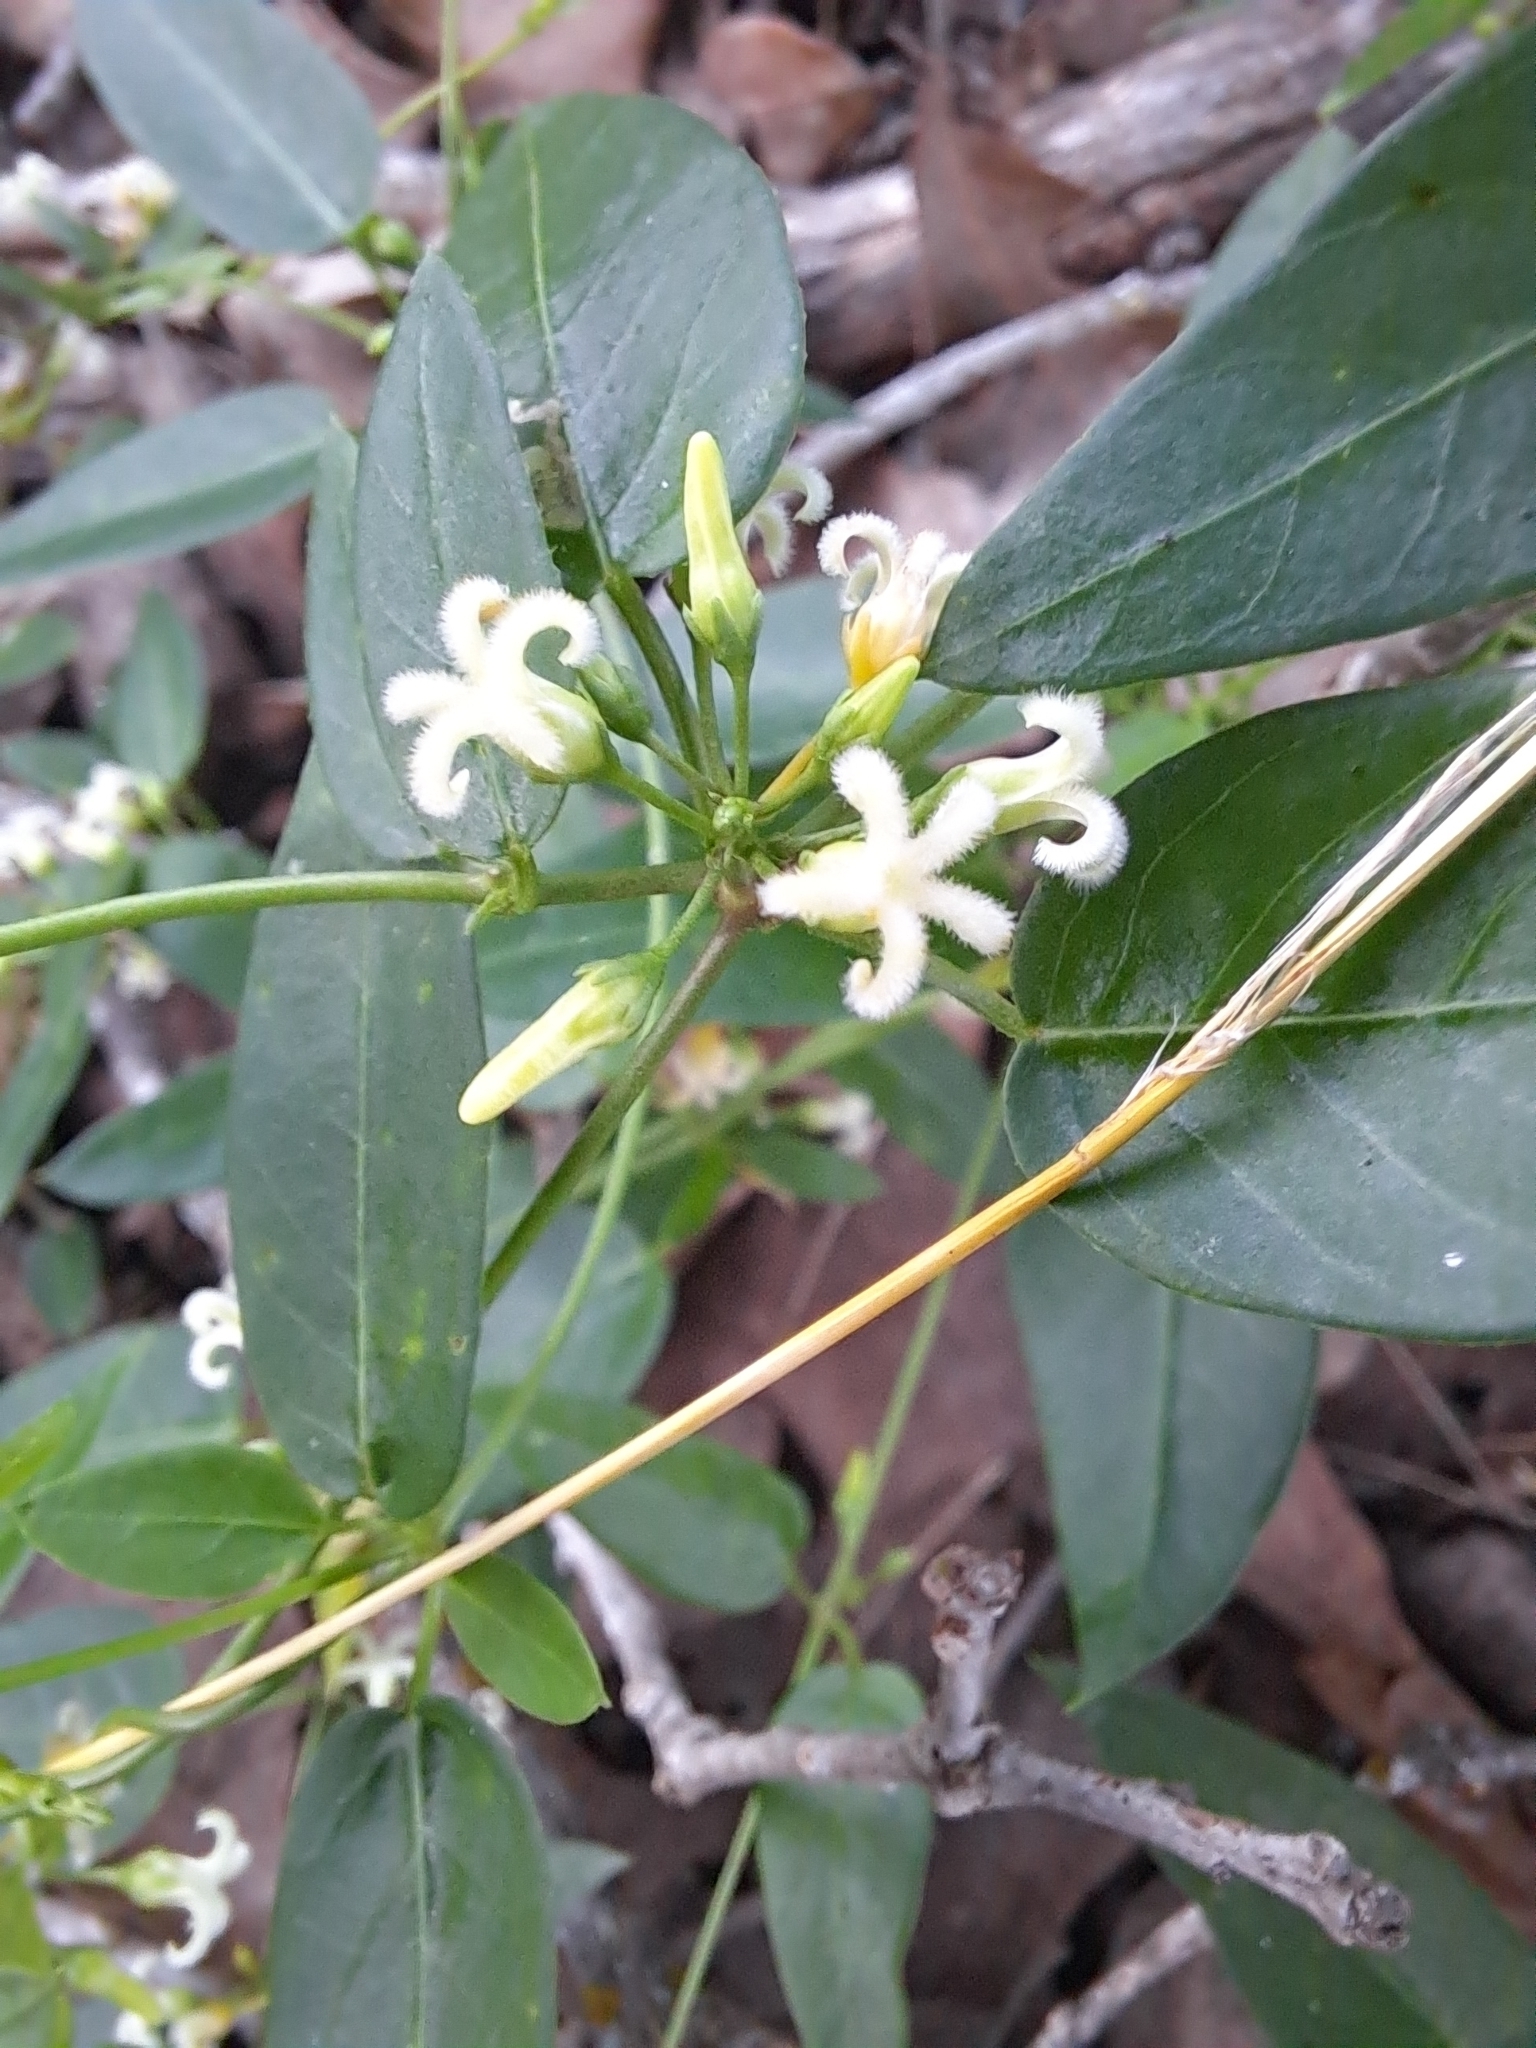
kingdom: Plantae
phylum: Tracheophyta
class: Magnoliopsida
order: Gentianales
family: Apocynaceae
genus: Metastelma
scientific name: Metastelma barbigerum
